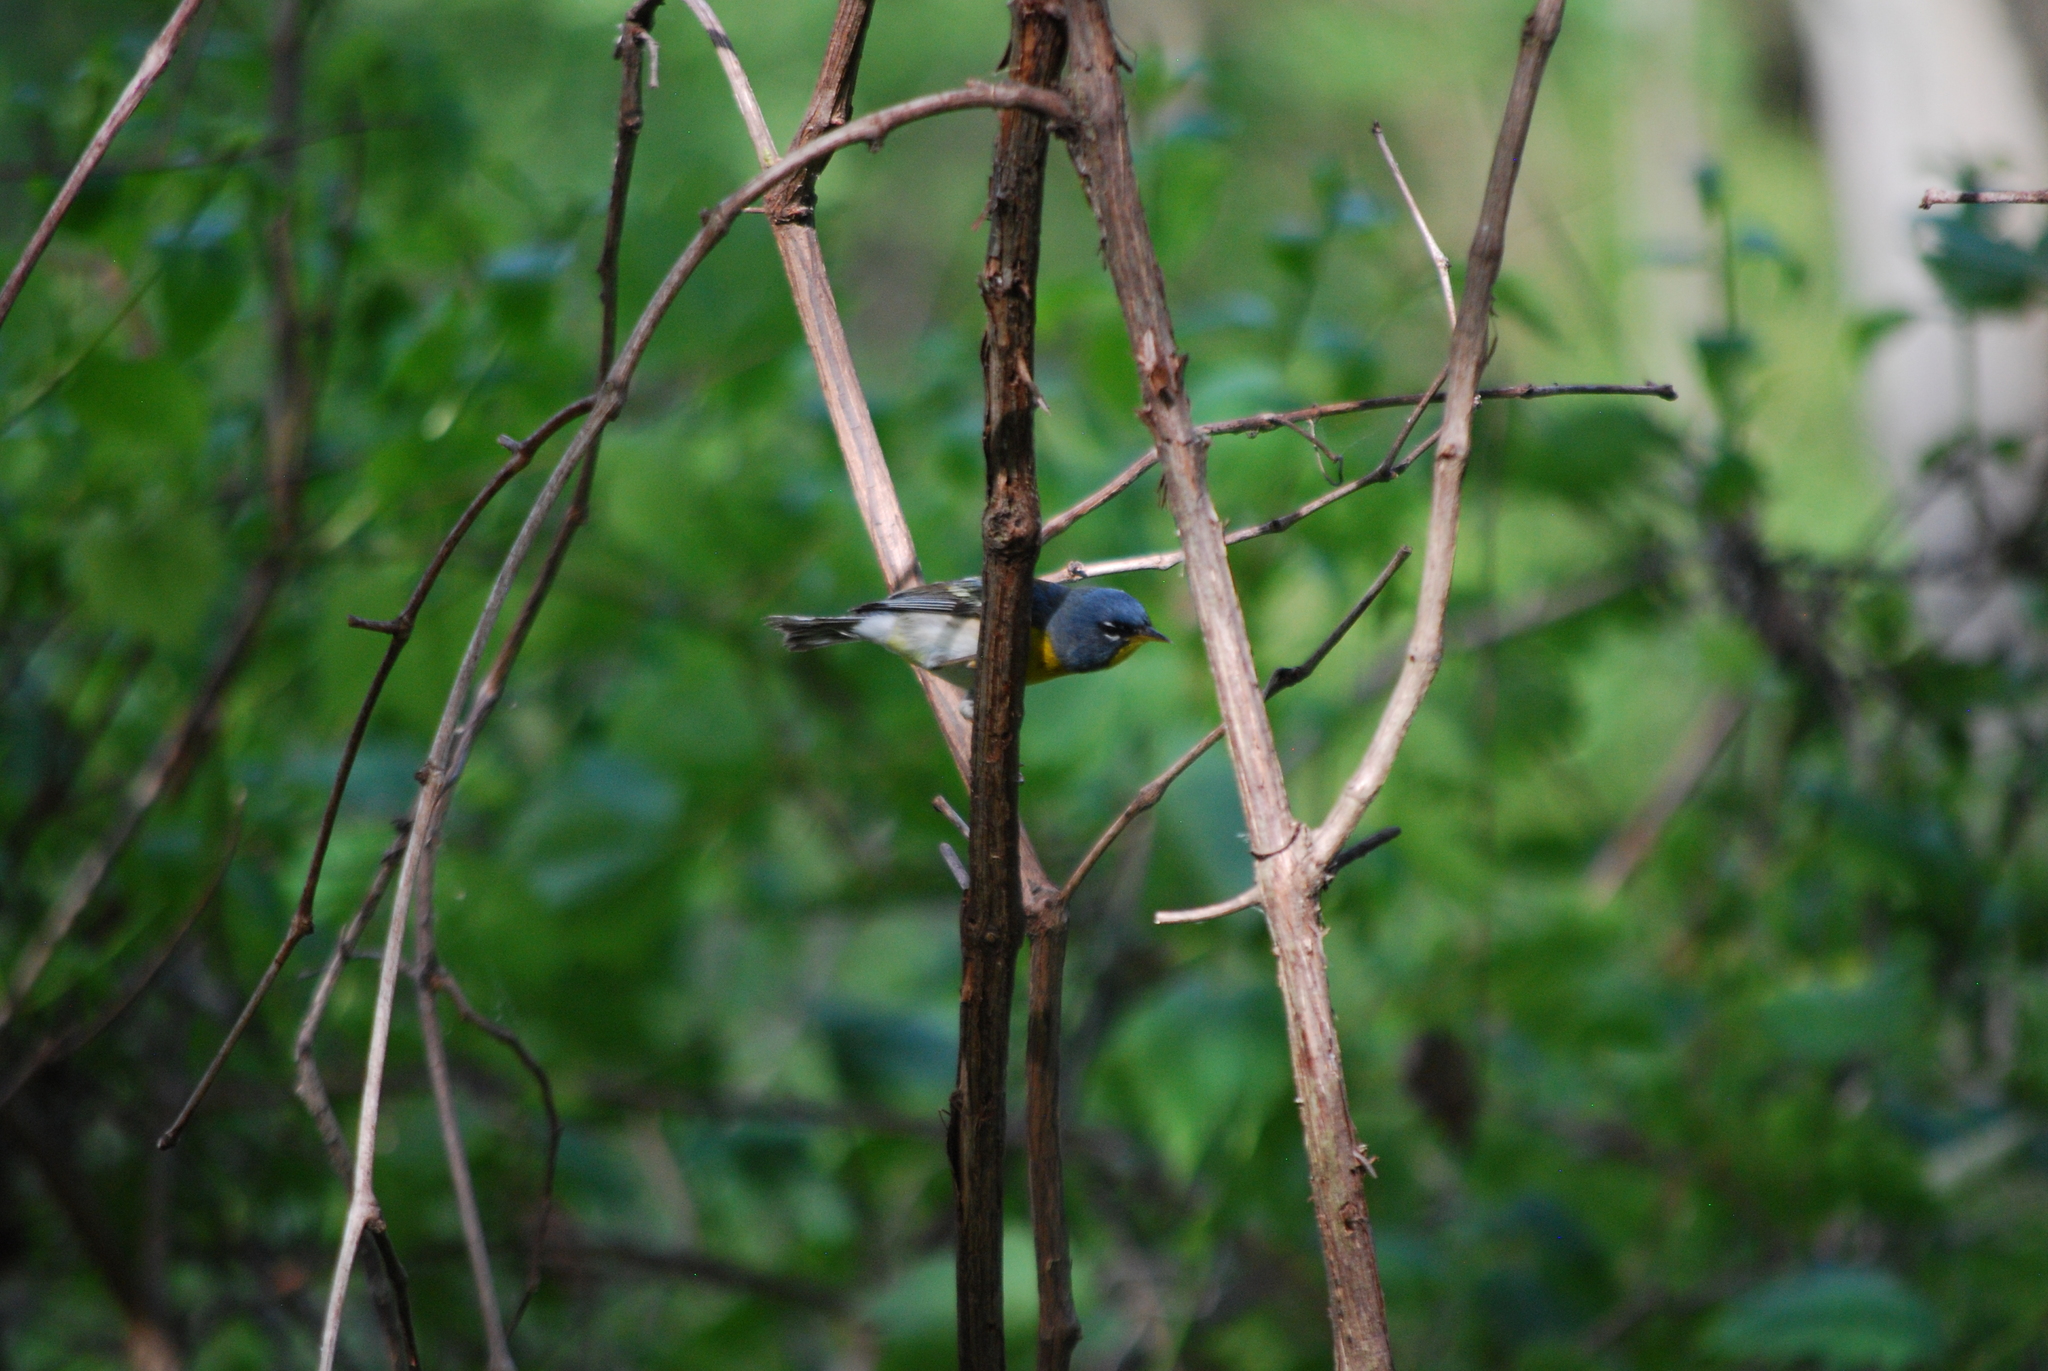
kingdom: Animalia
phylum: Chordata
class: Aves
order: Passeriformes
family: Parulidae
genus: Setophaga
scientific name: Setophaga americana
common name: Northern parula
